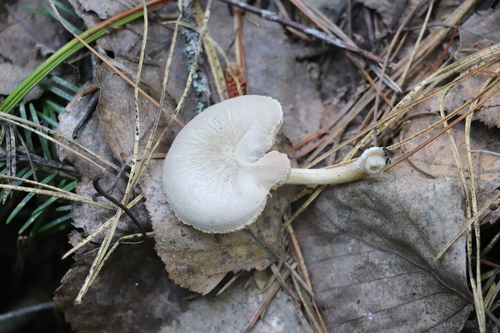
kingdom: Fungi
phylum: Basidiomycota
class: Agaricomycetes
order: Agaricales
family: Pluteaceae
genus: Pluteus
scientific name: Pluteus plautus
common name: Satin shield
